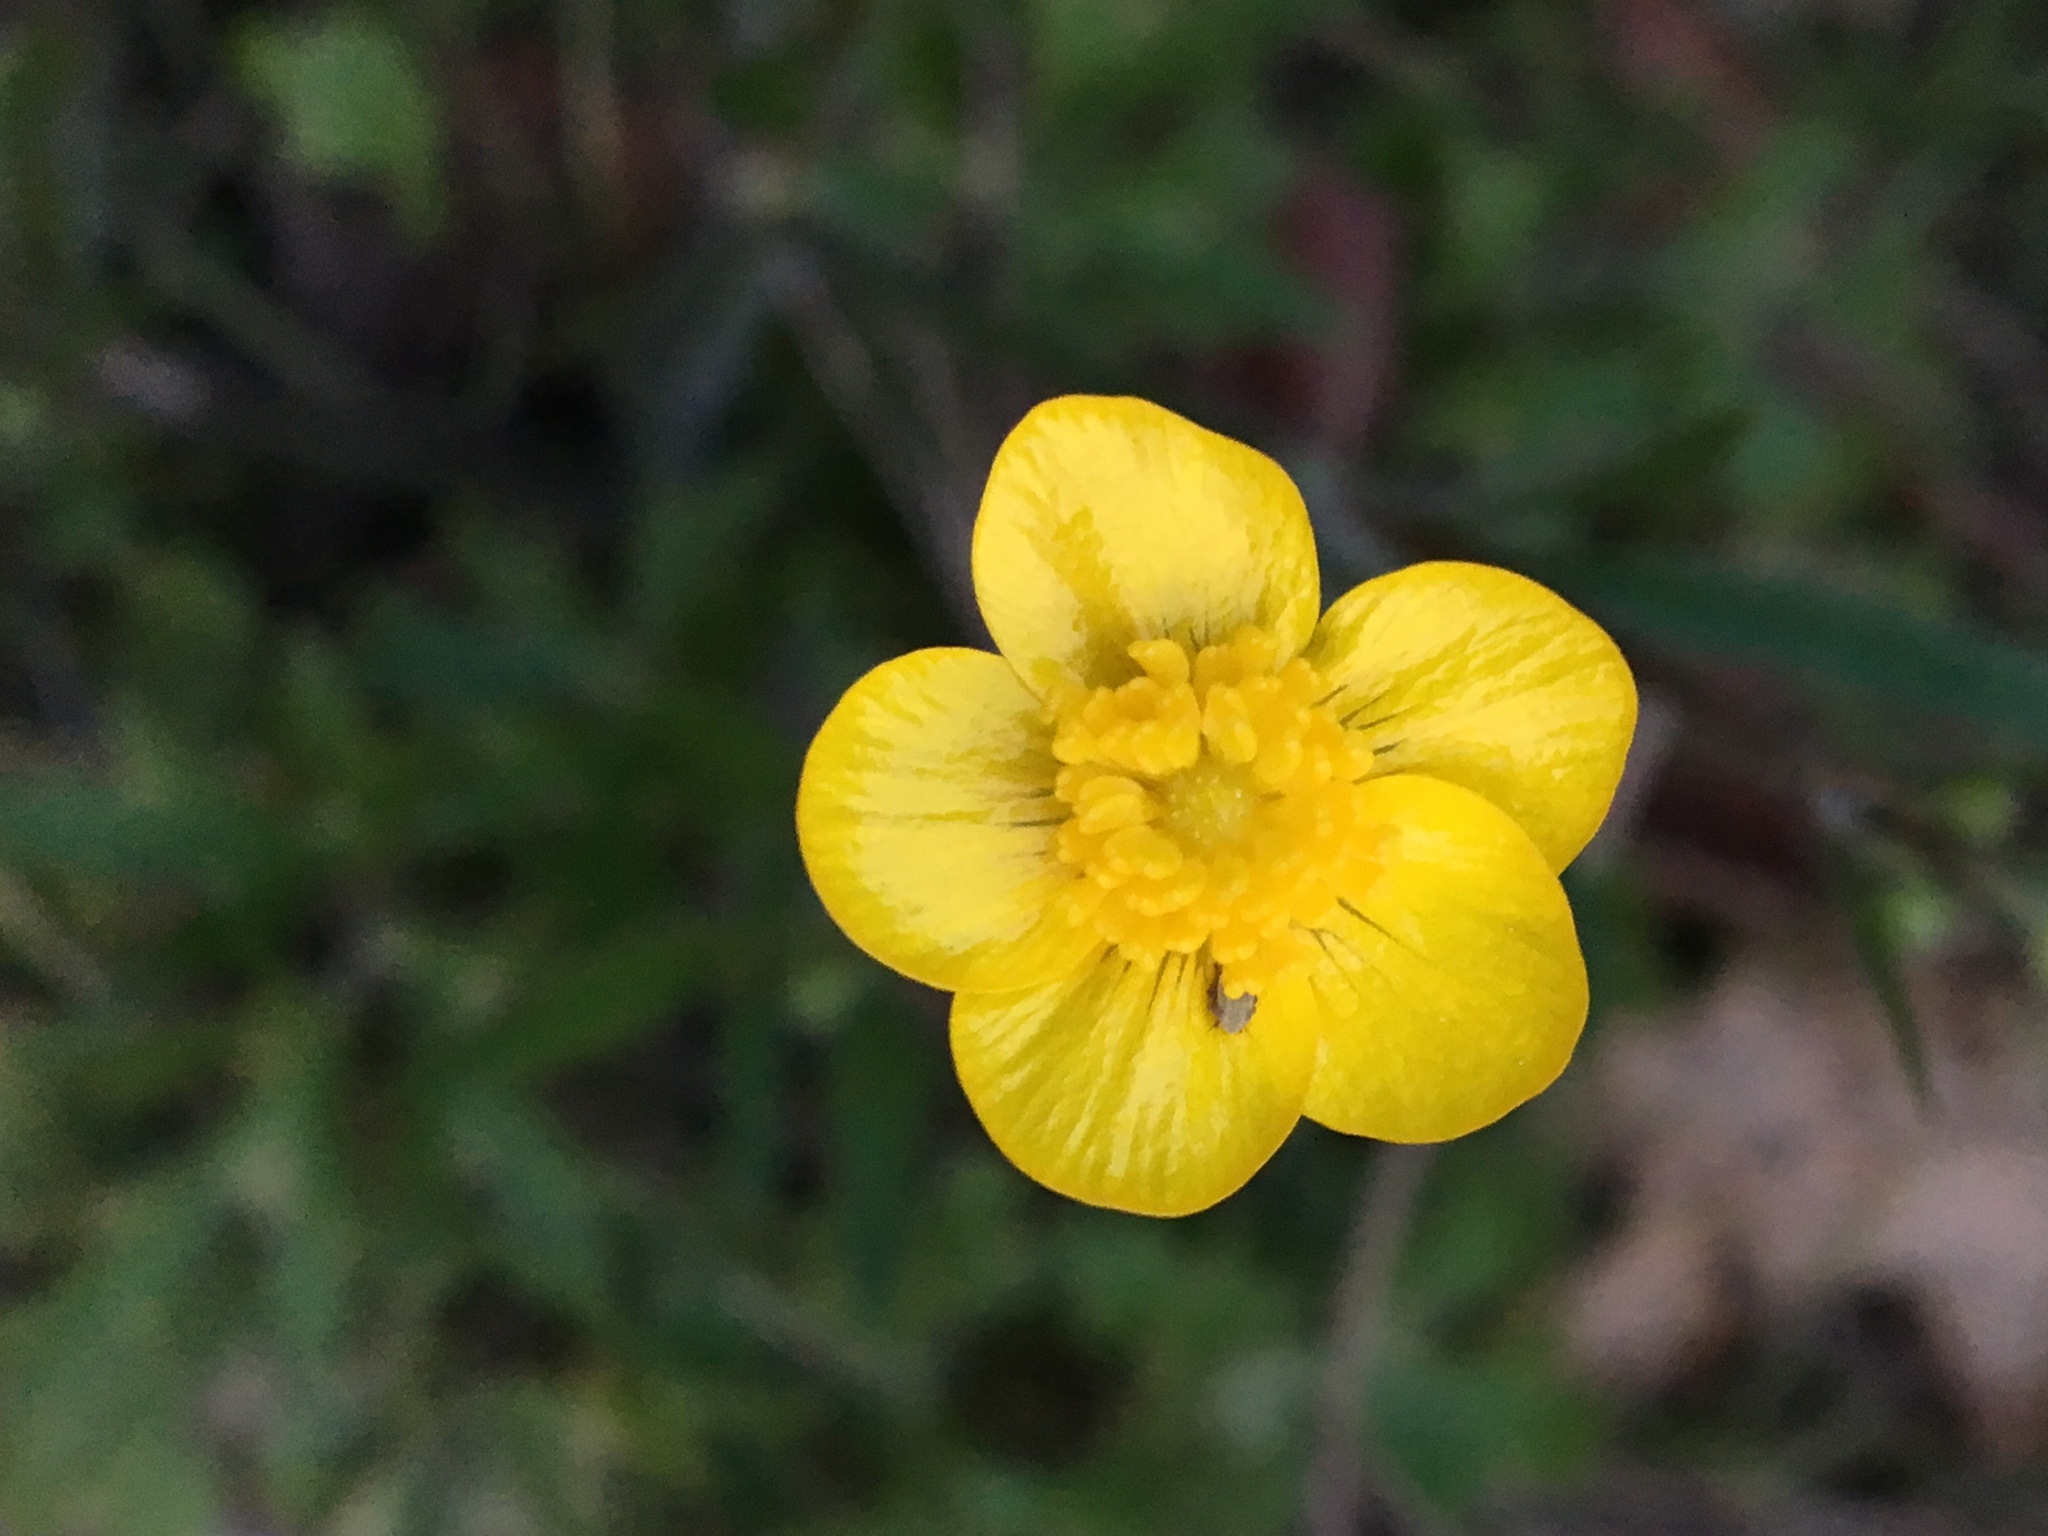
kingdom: Plantae
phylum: Tracheophyta
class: Magnoliopsida
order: Ranunculales
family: Ranunculaceae
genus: Ranunculus
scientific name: Ranunculus occidentalis
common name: Western buttercup
